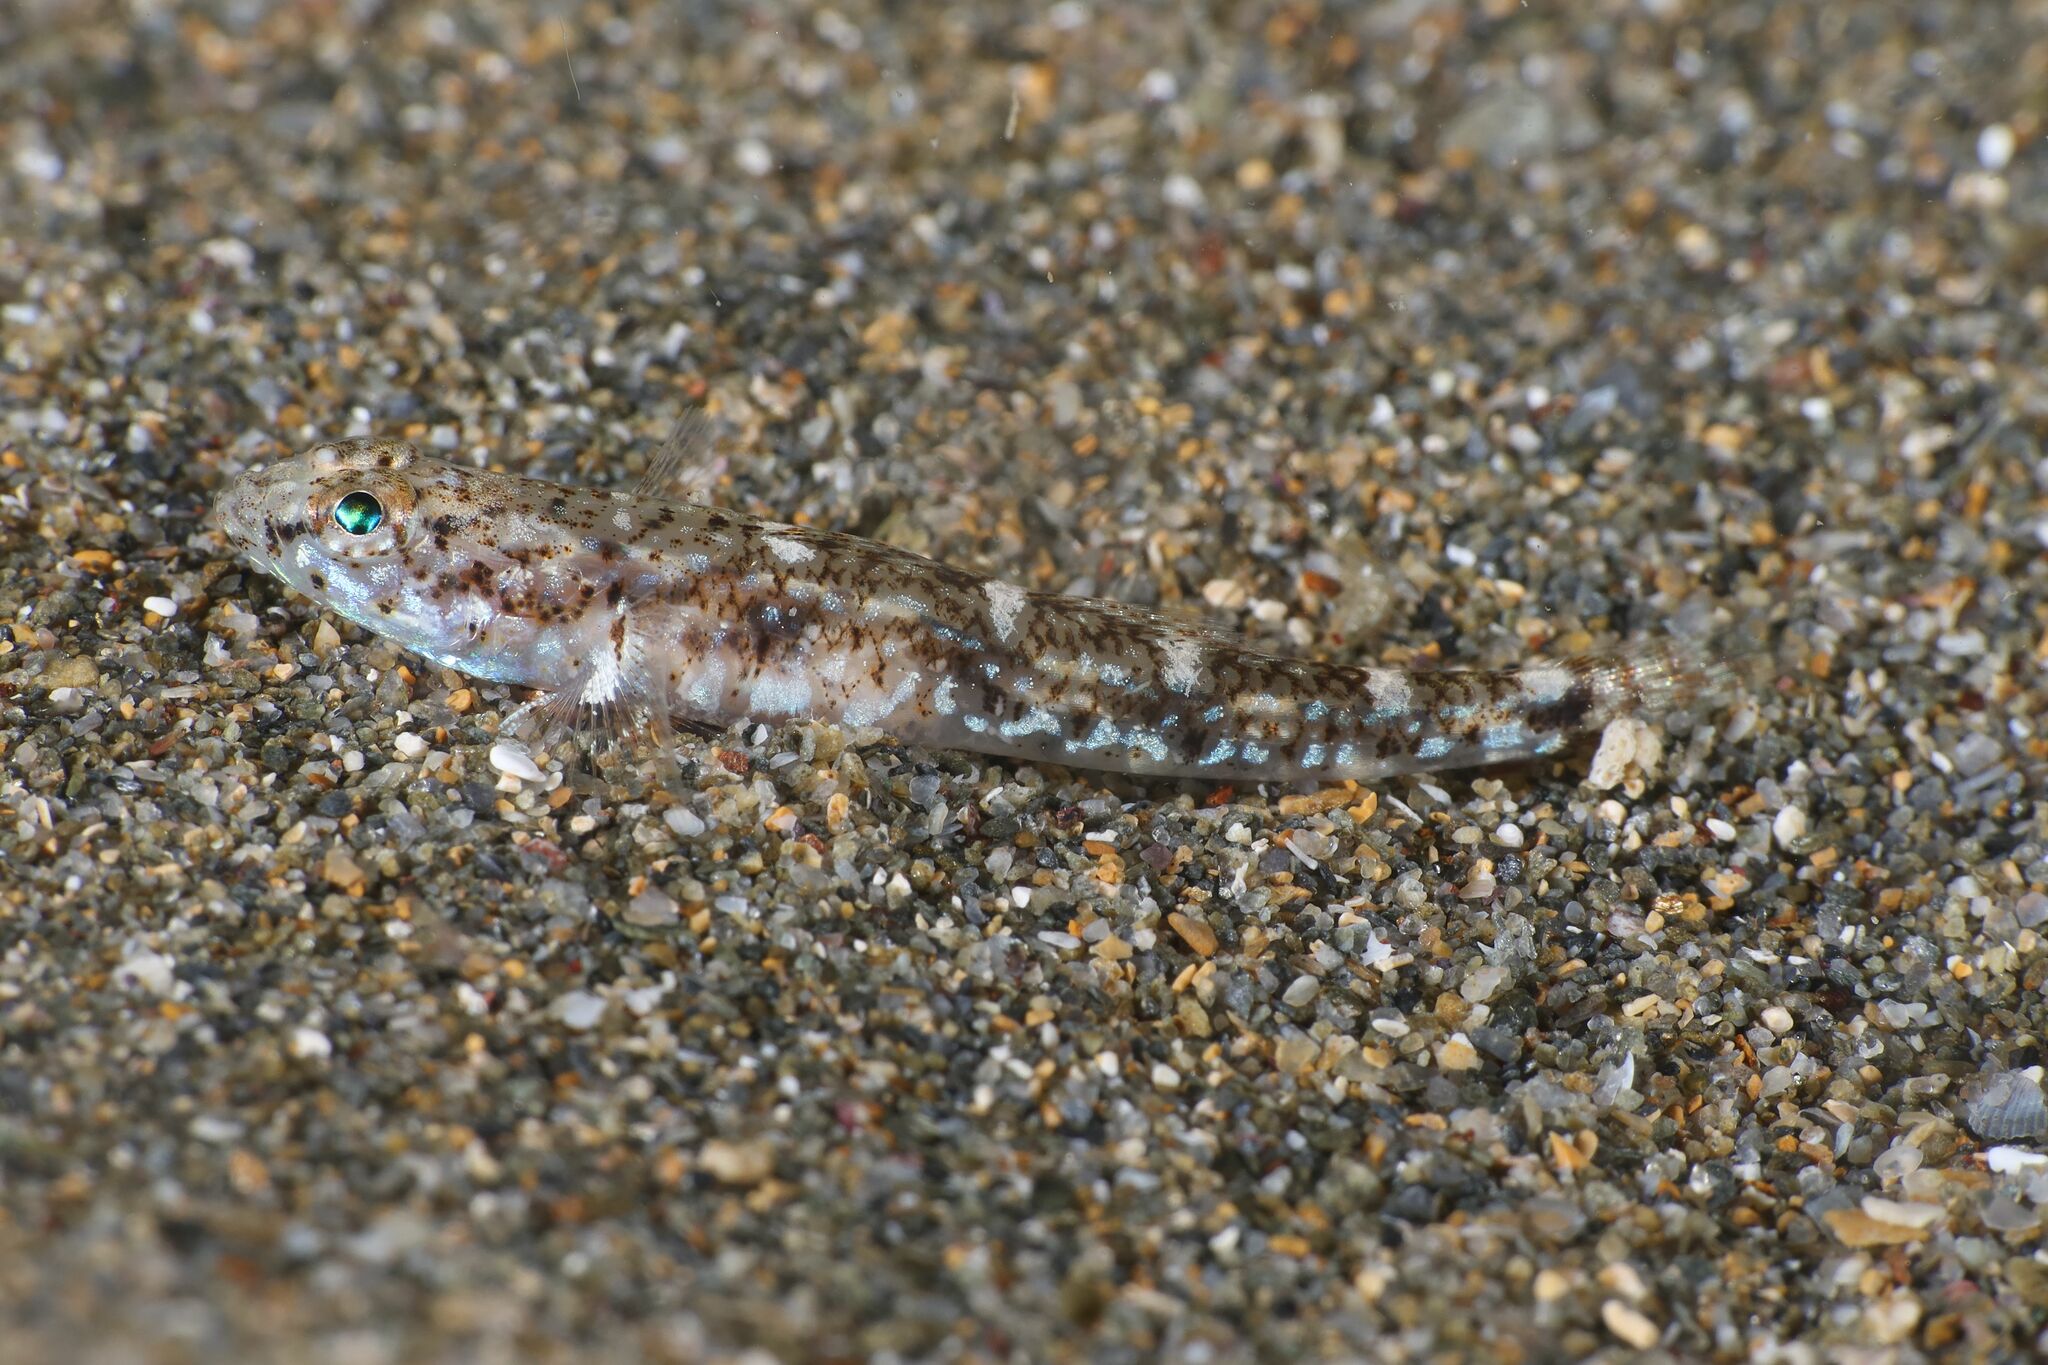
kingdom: Animalia
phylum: Chordata
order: Perciformes
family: Gobiidae
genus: Pomatoschistus
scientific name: Pomatoschistus marmoratus
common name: Marbled goby
